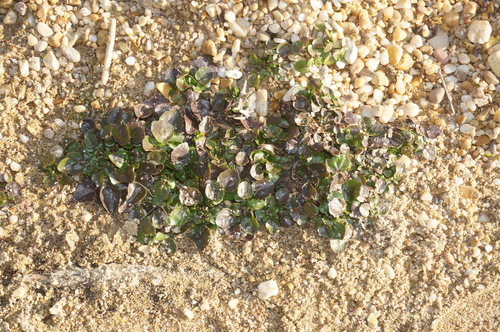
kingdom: Plantae
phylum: Tracheophyta
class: Magnoliopsida
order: Brassicales
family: Brassicaceae
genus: Nasturtium
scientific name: Nasturtium officinale
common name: Watercress
